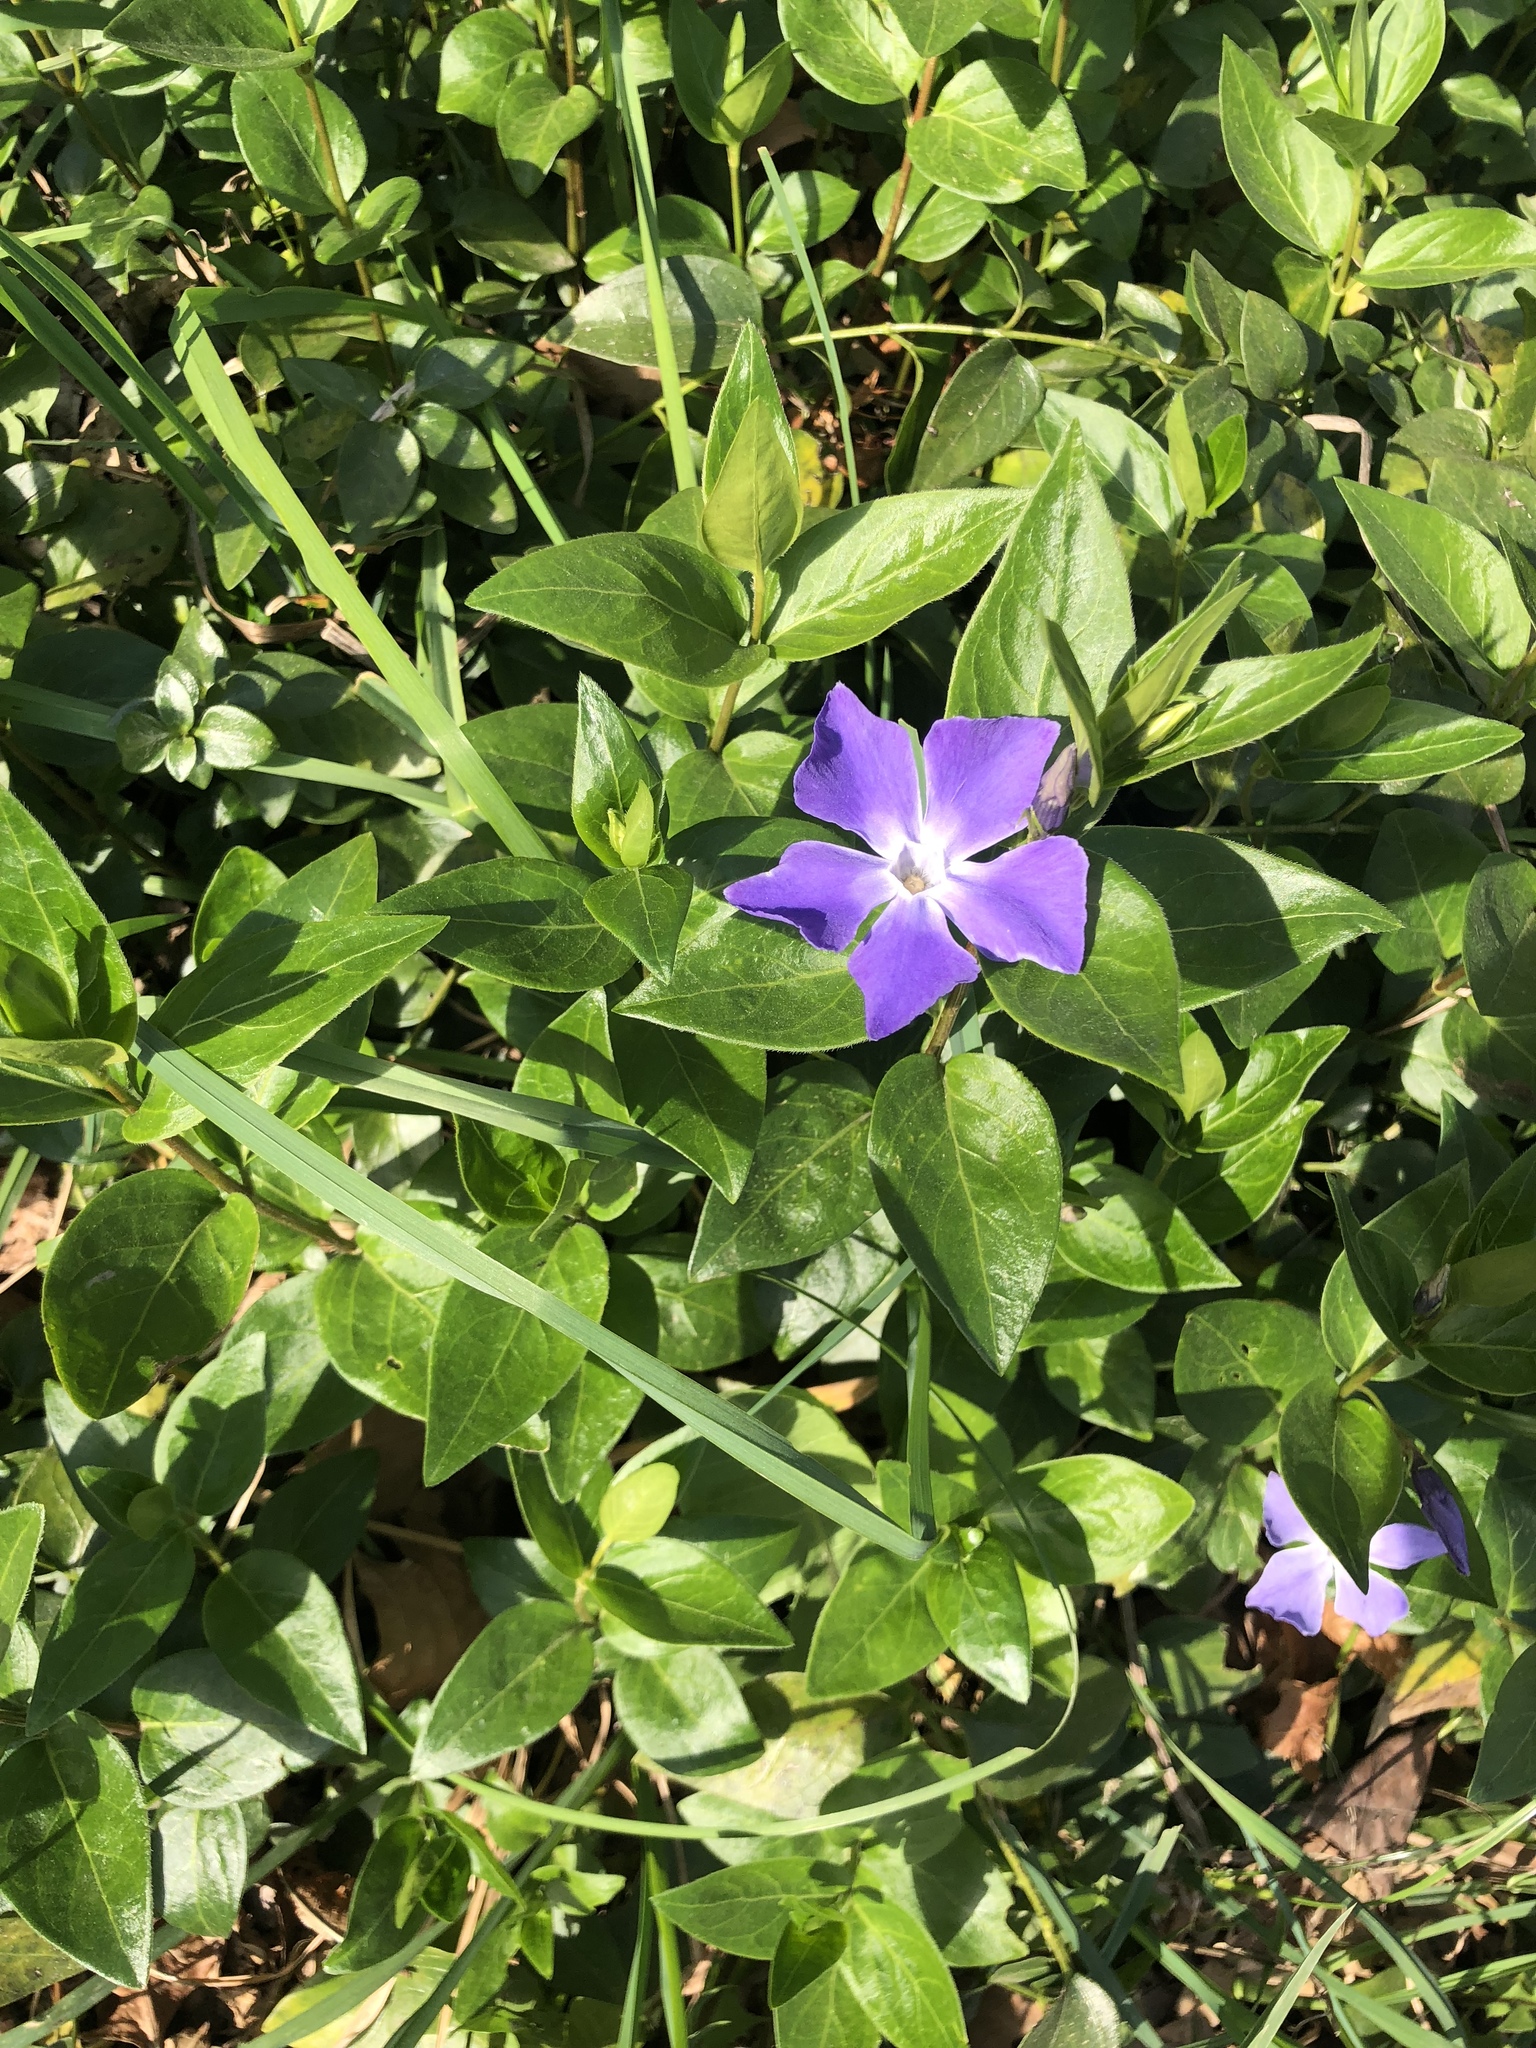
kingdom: Plantae
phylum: Tracheophyta
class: Magnoliopsida
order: Gentianales
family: Apocynaceae
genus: Vinca
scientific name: Vinca major
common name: Greater periwinkle
